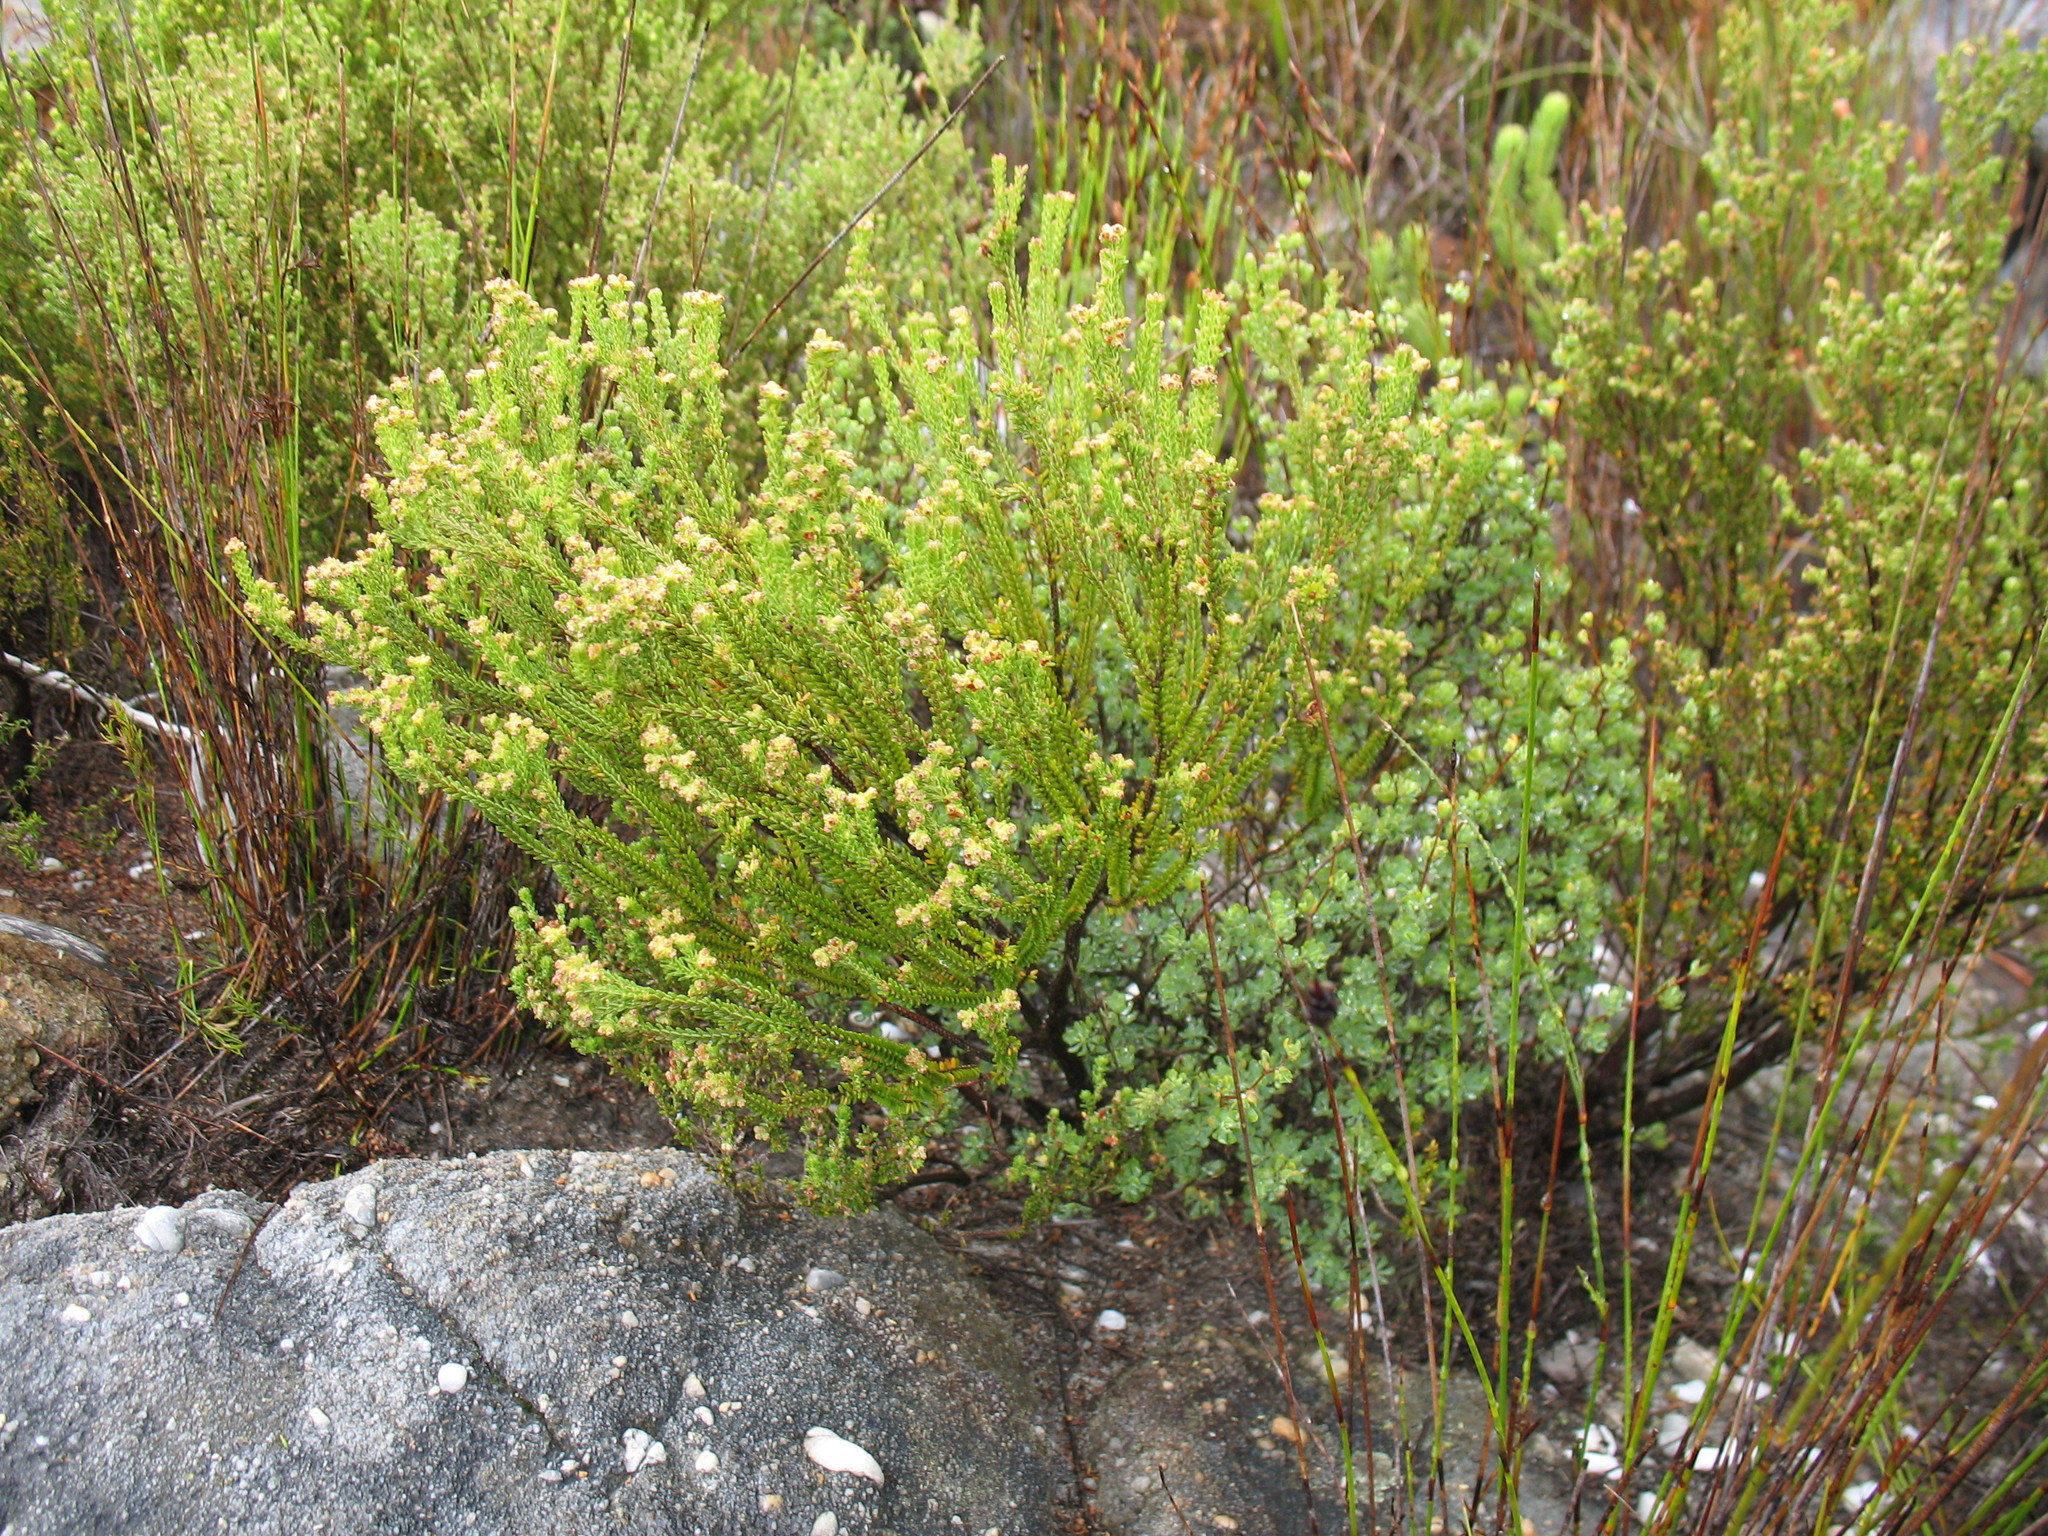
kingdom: Plantae
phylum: Tracheophyta
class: Magnoliopsida
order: Ericales
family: Ericaceae
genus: Erica
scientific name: Erica serrata
